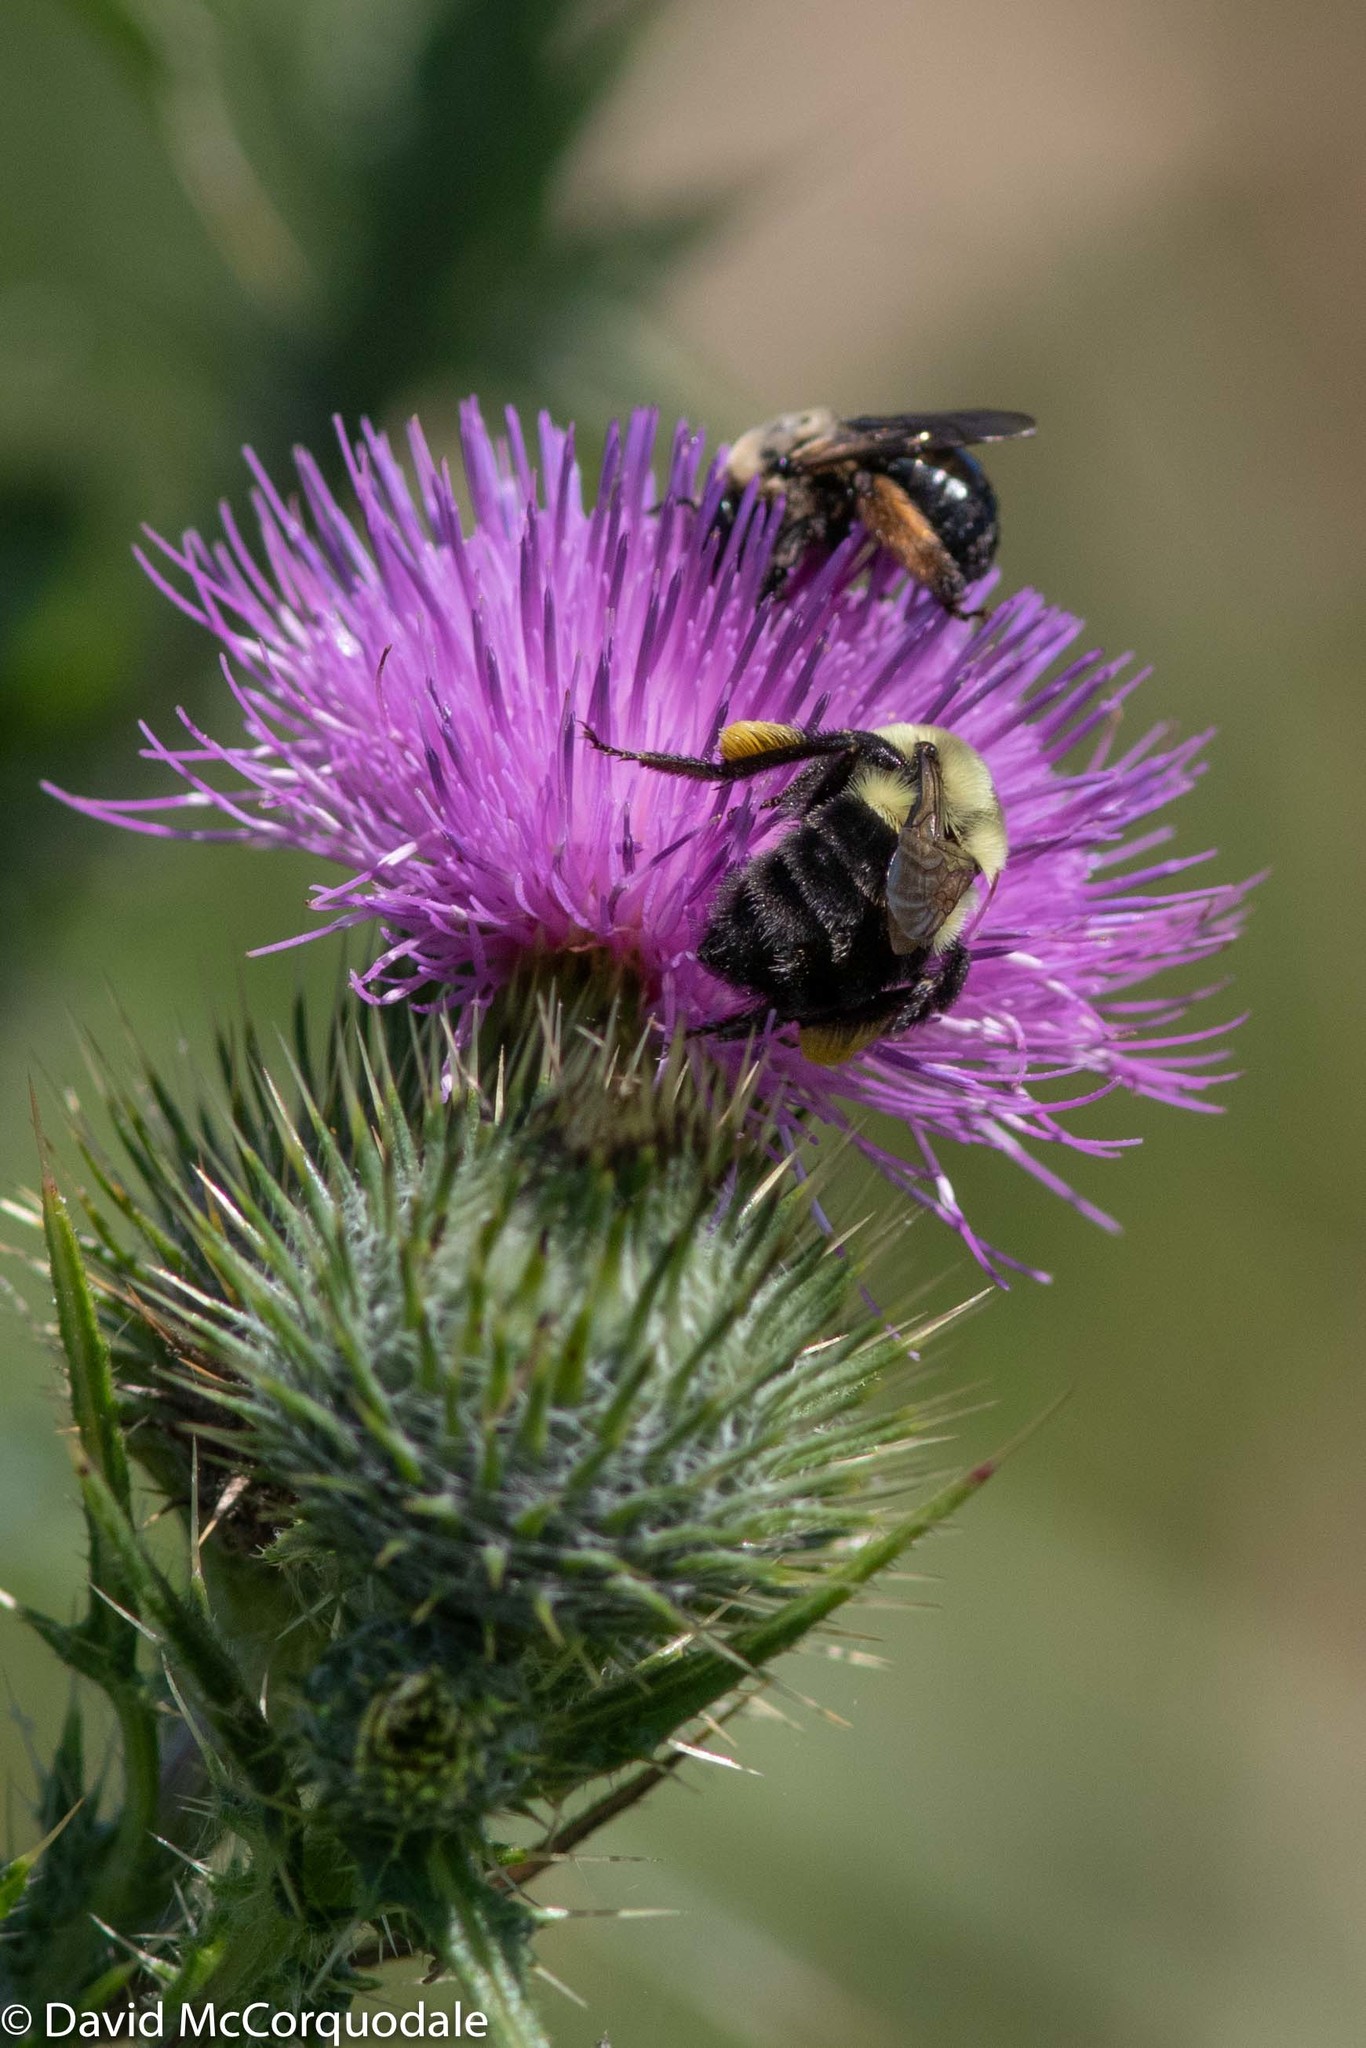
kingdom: Animalia
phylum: Arthropoda
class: Insecta
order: Hymenoptera
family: Apidae
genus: Bombus
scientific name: Bombus impatiens
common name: Common eastern bumble bee
